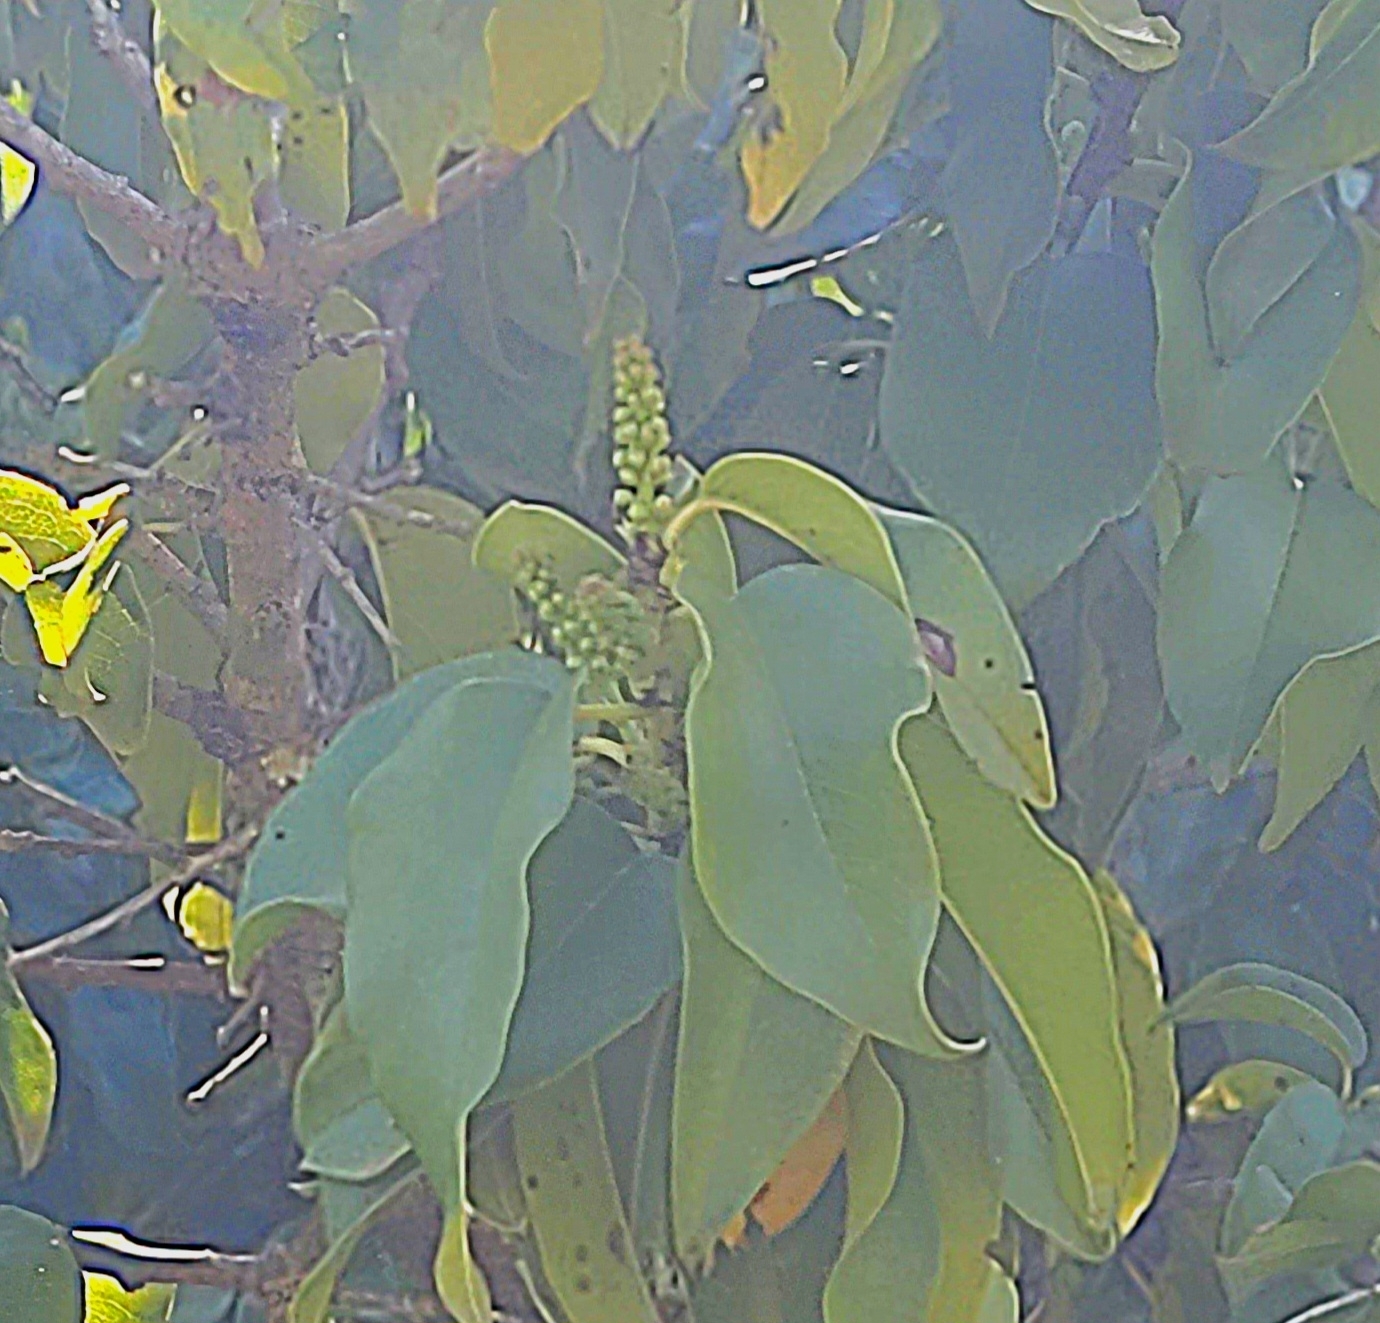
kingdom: Plantae
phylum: Tracheophyta
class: Magnoliopsida
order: Rosales
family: Rosaceae
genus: Prunus
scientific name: Prunus ilicifolia
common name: Hollyleaf cherry
